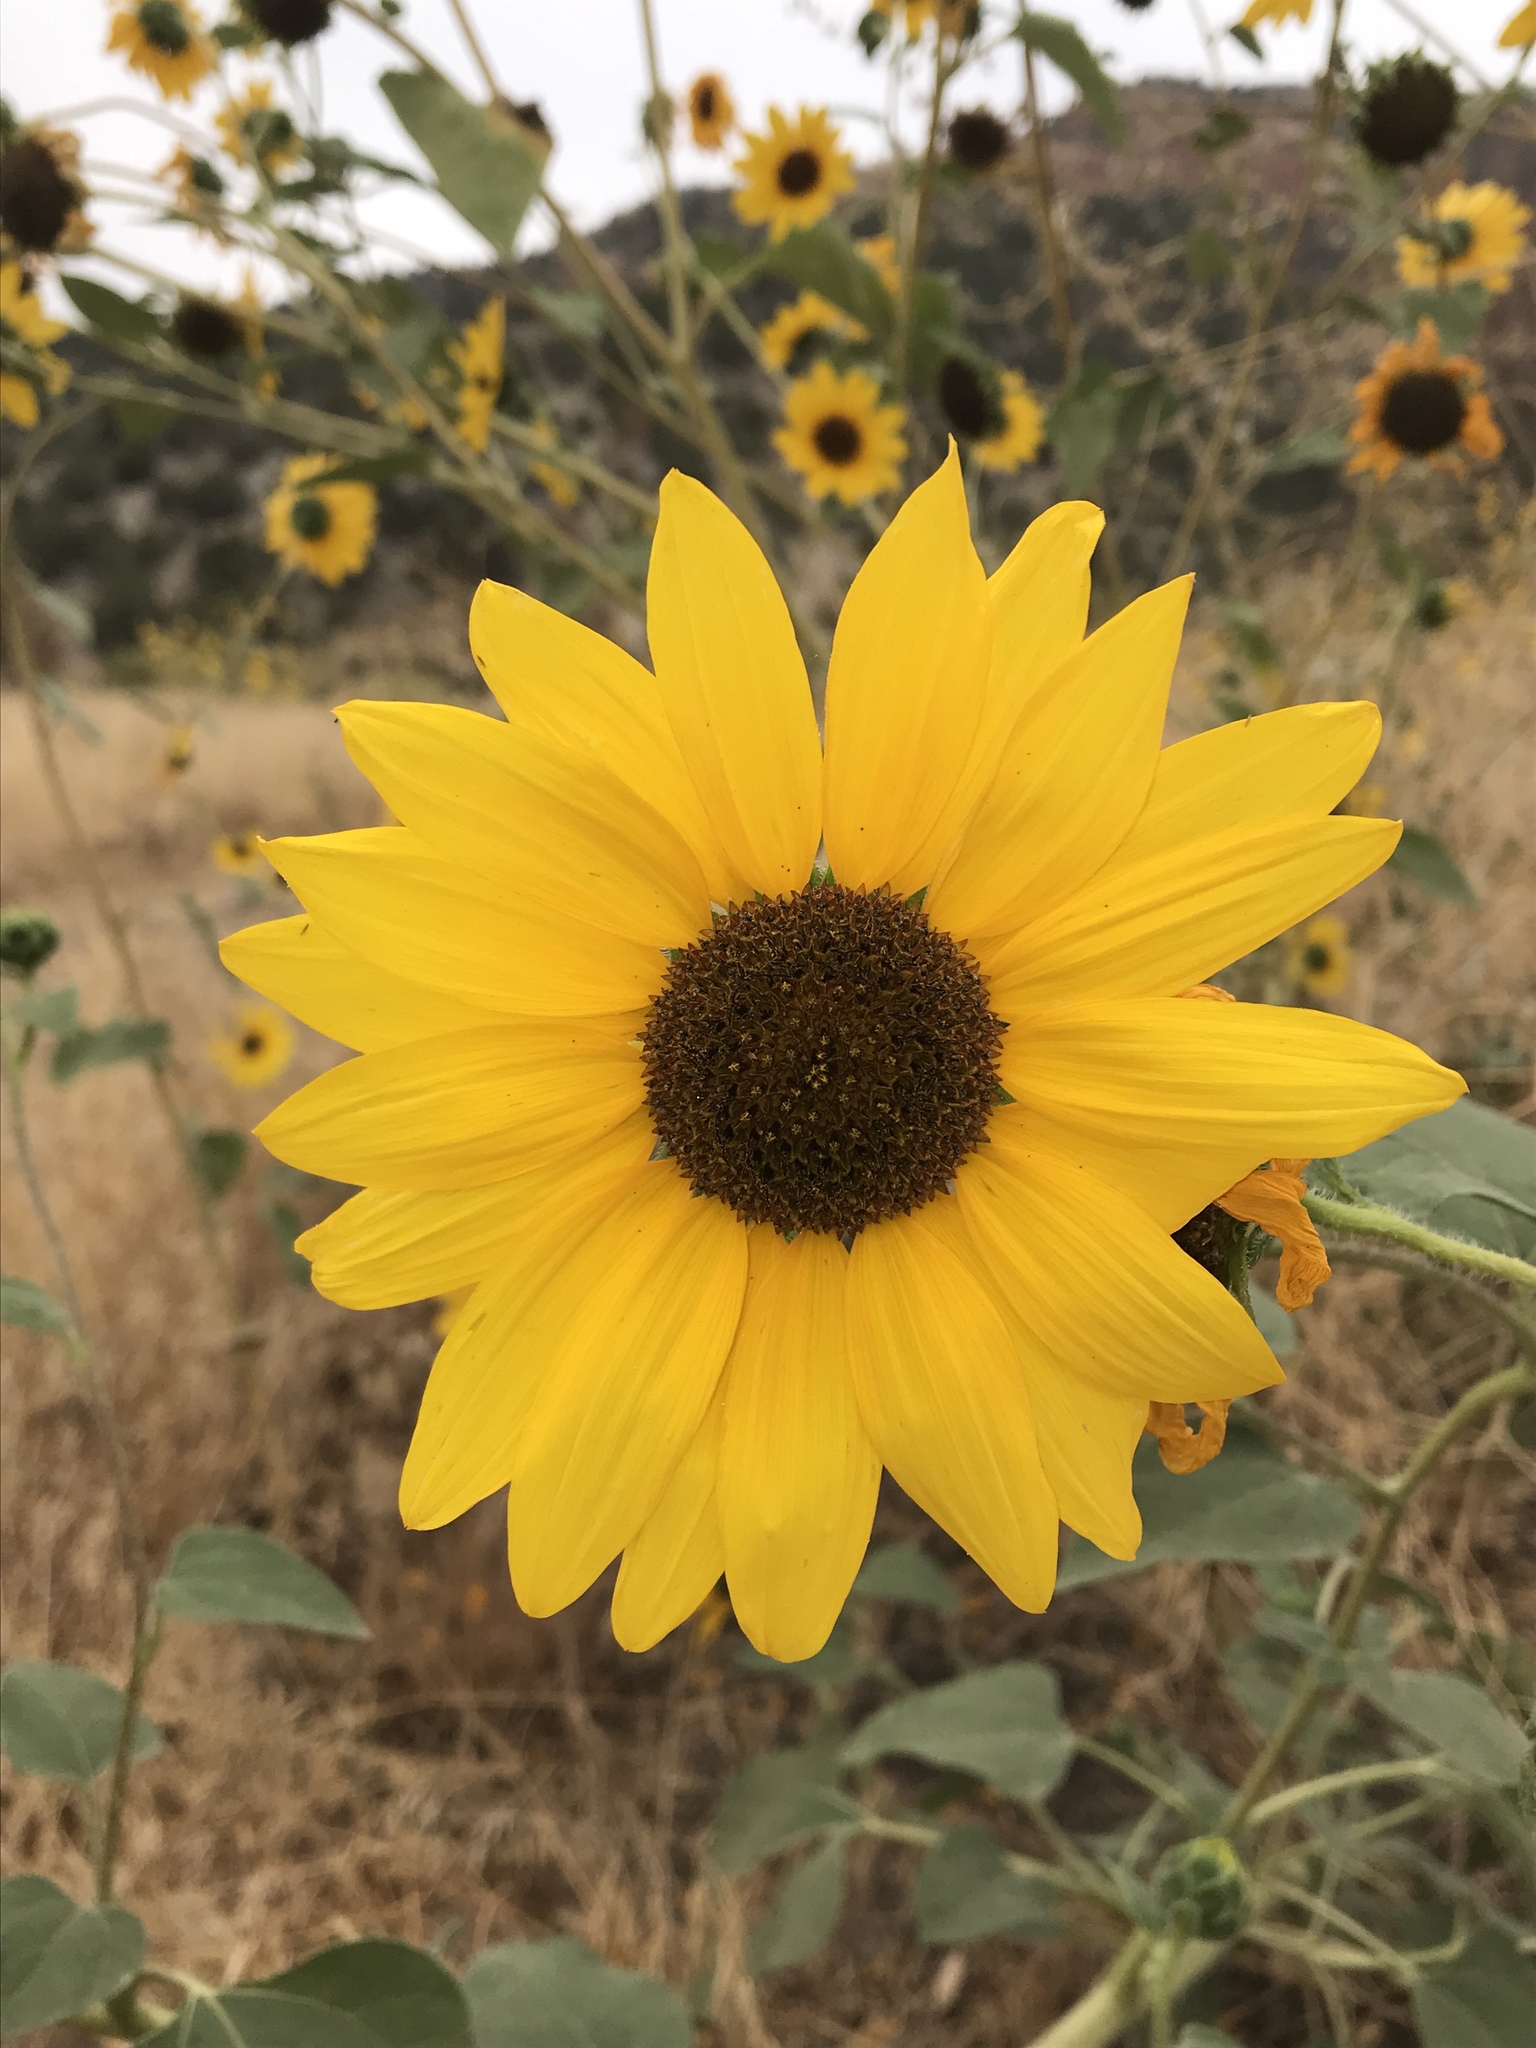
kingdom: Plantae
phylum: Tracheophyta
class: Magnoliopsida
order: Asterales
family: Asteraceae
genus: Helianthus
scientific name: Helianthus annuus
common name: Sunflower
